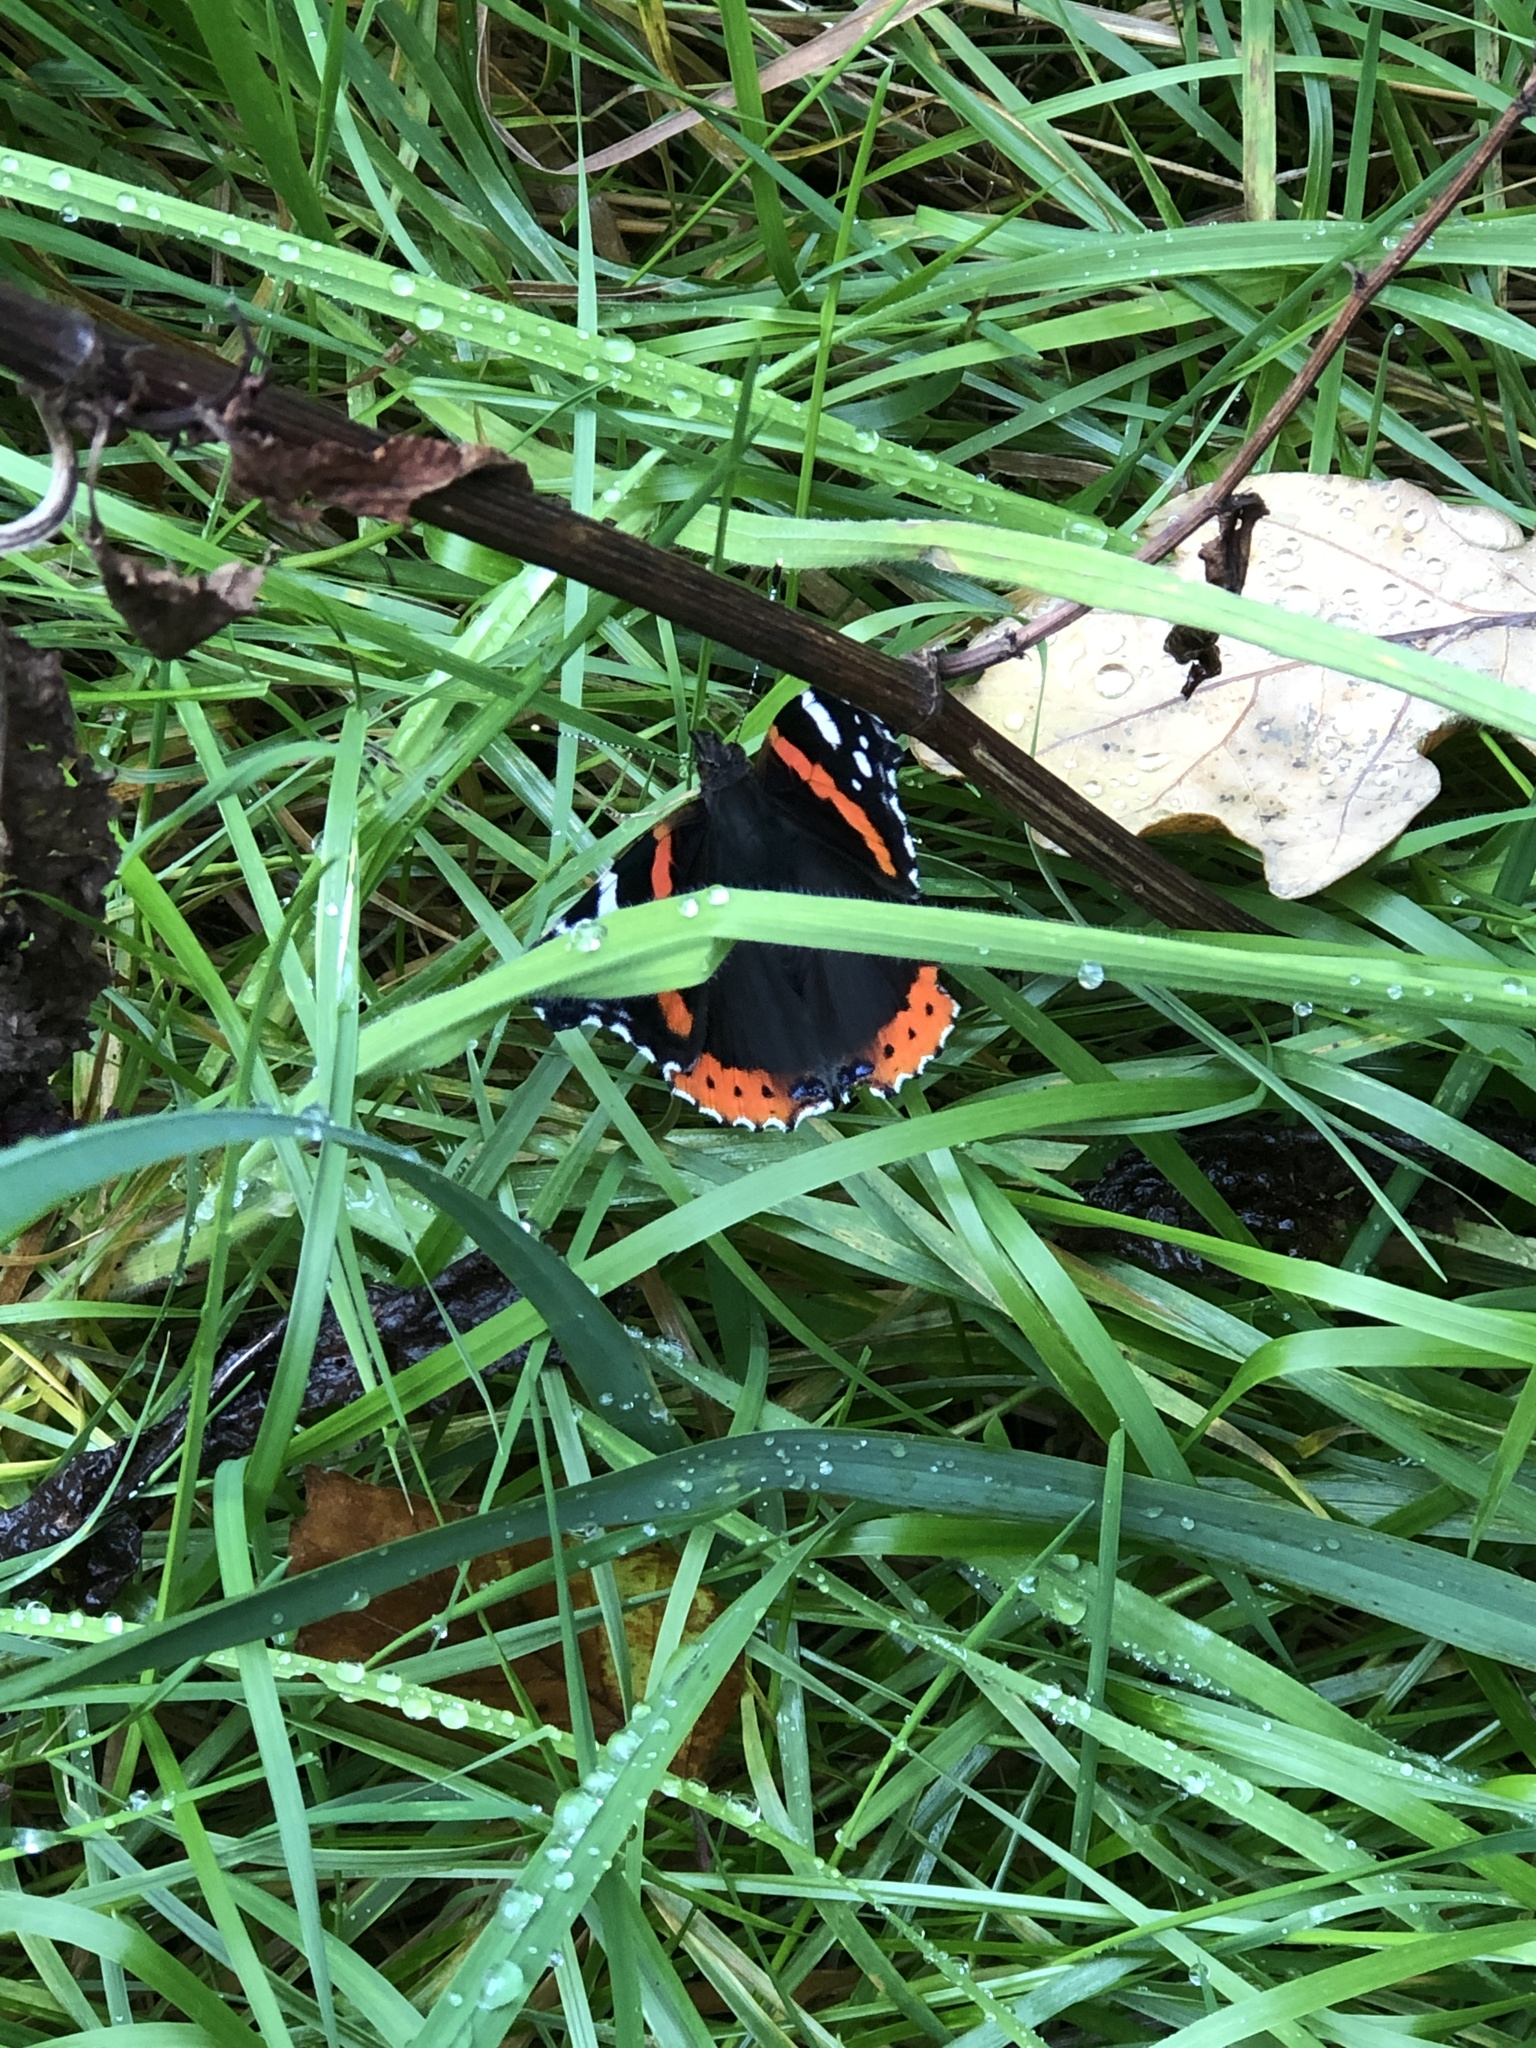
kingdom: Animalia
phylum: Arthropoda
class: Insecta
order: Lepidoptera
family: Nymphalidae
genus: Vanessa
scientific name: Vanessa atalanta
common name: Red admiral
